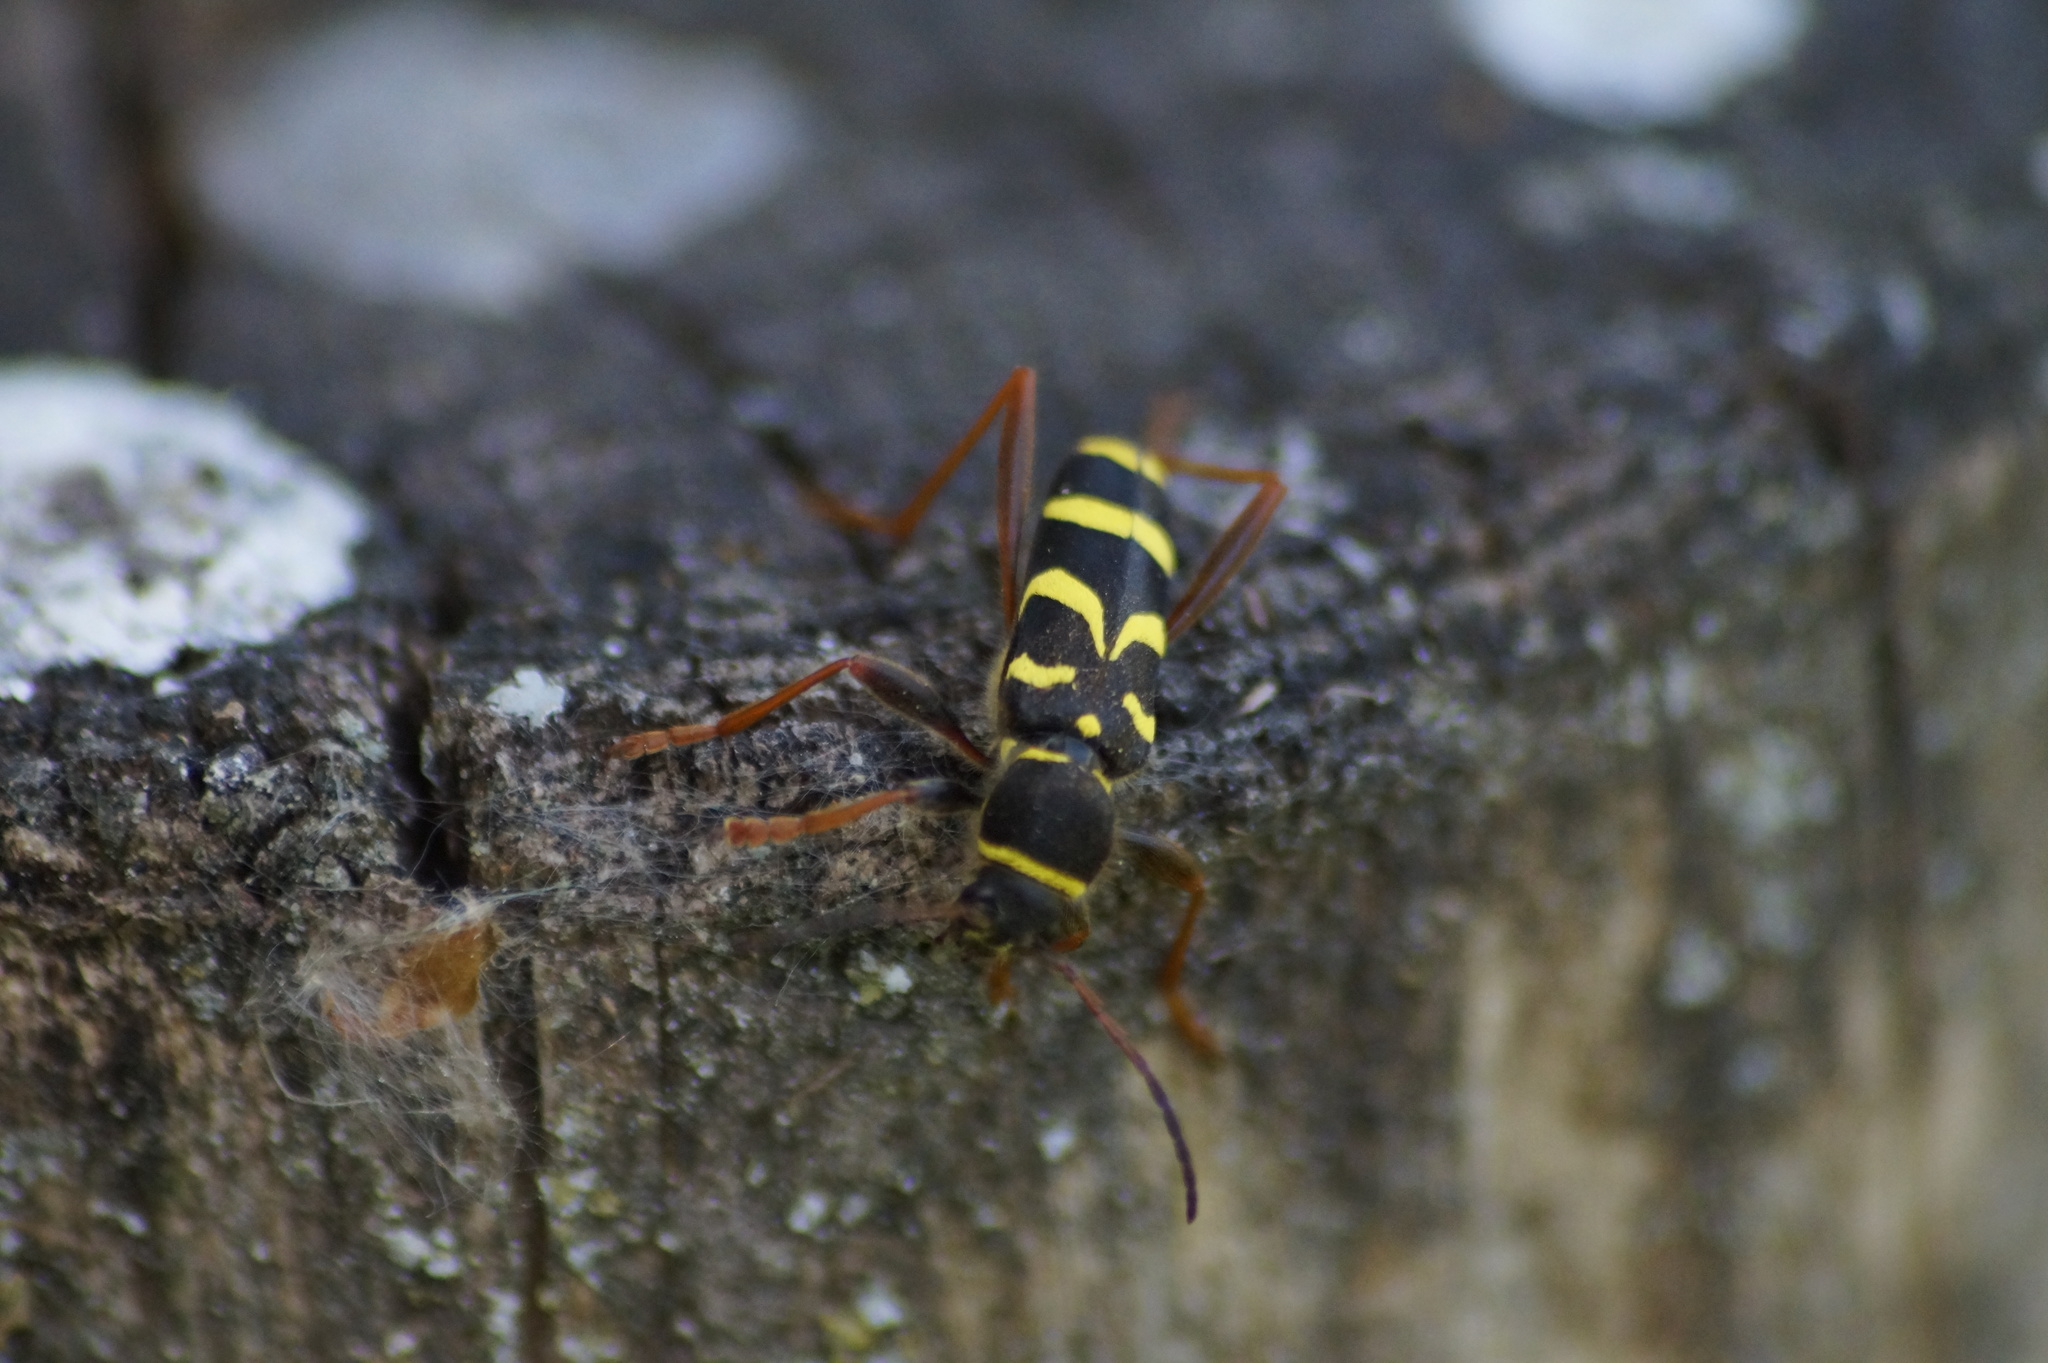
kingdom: Animalia
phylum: Arthropoda
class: Insecta
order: Coleoptera
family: Cerambycidae
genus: Clytus
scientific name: Clytus arietis
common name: Wasp beetle
